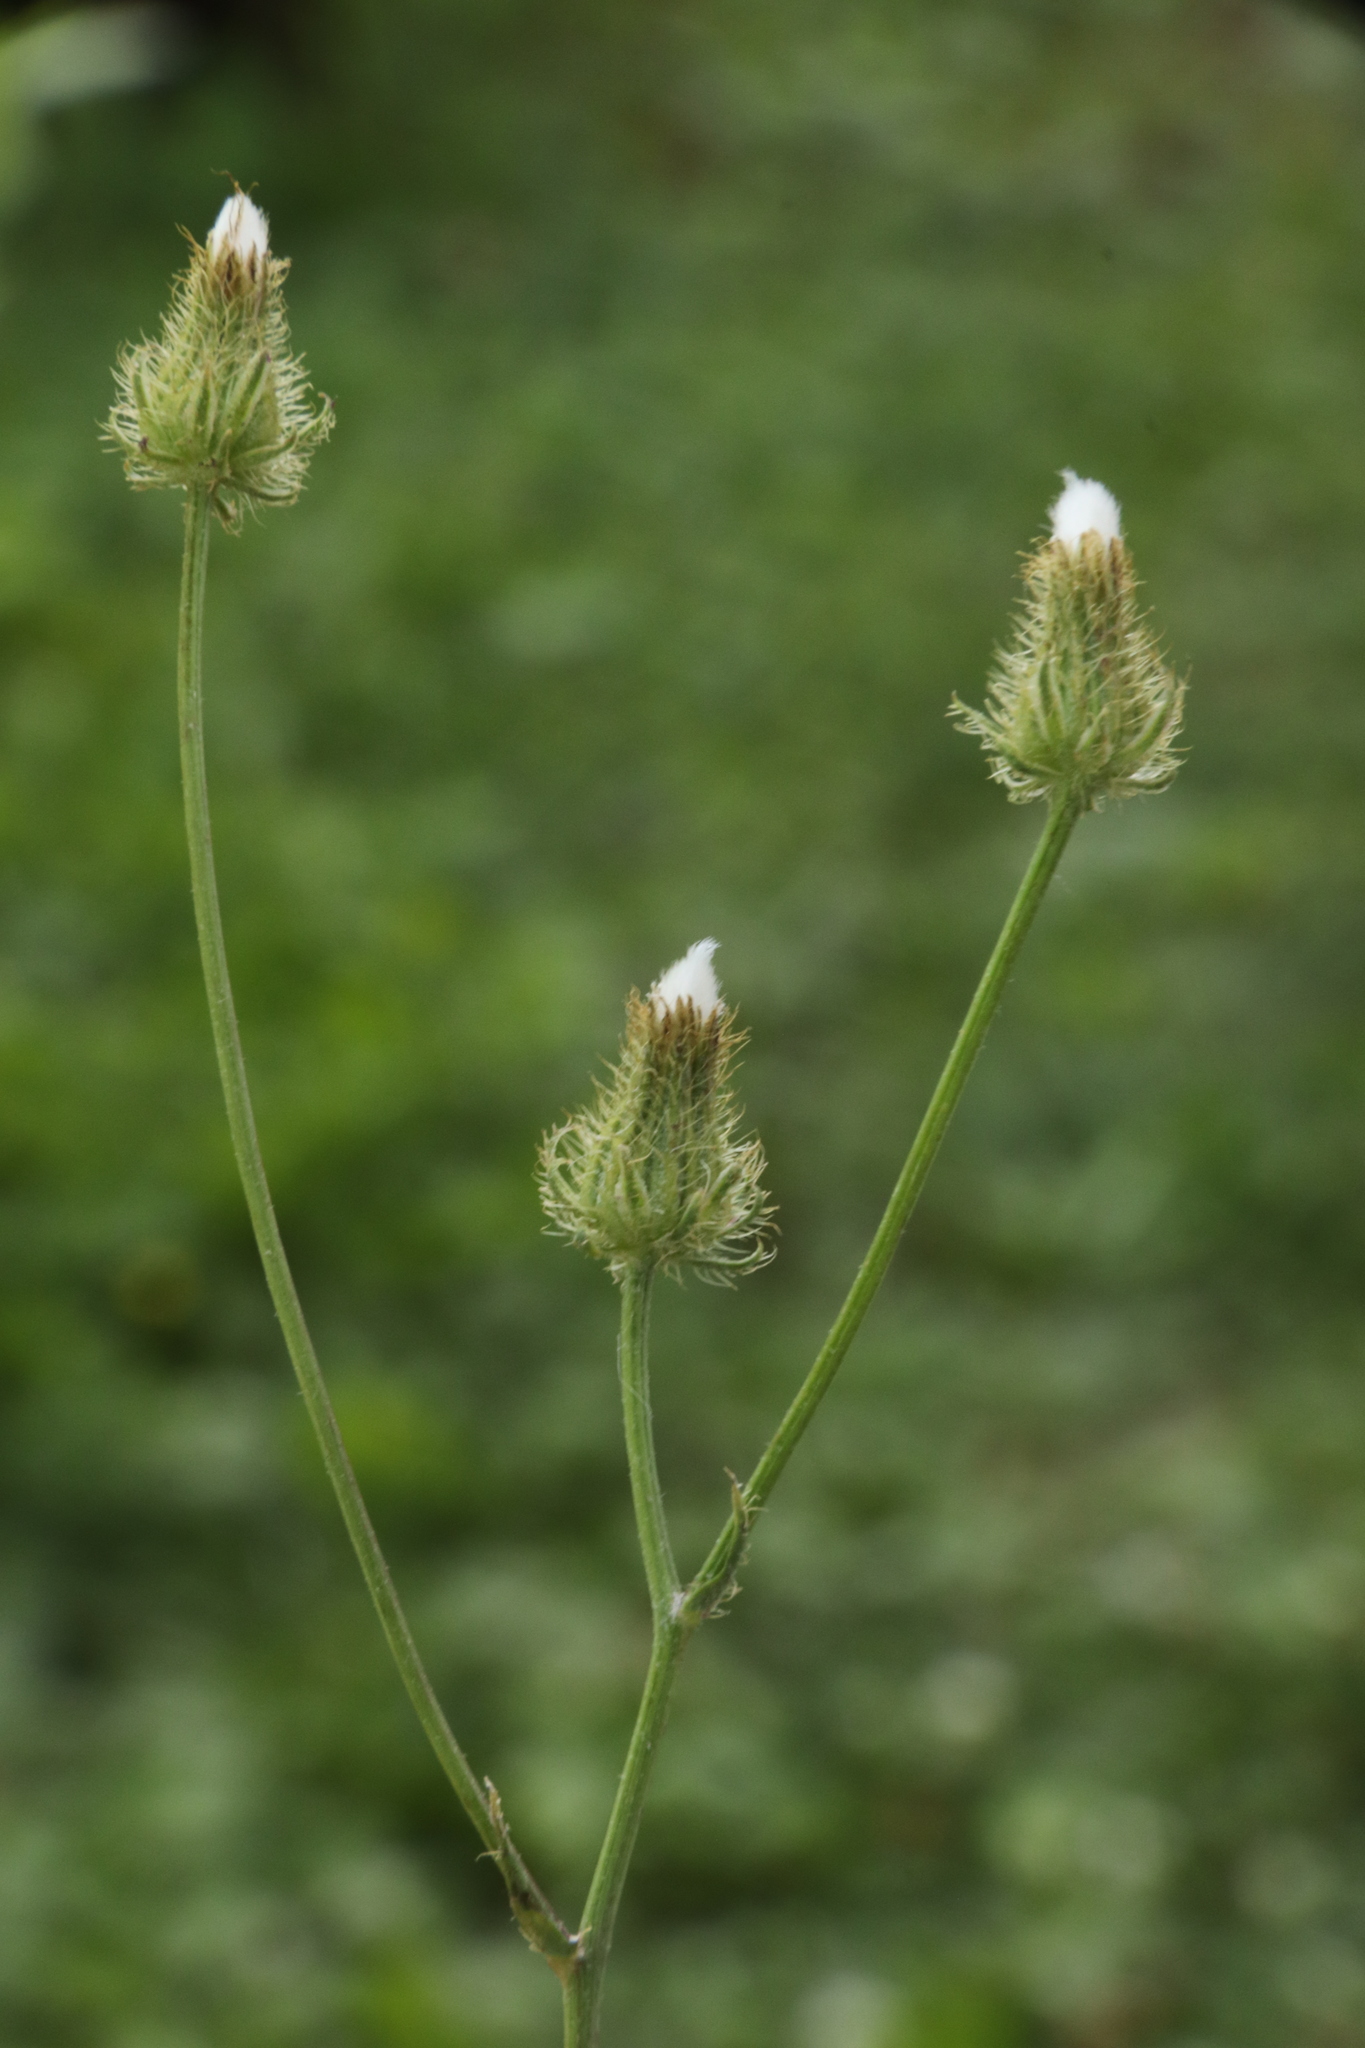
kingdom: Plantae
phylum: Tracheophyta
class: Magnoliopsida
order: Asterales
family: Asteraceae
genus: Crepis
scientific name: Crepis setosa
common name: Bristly hawk's-beard
